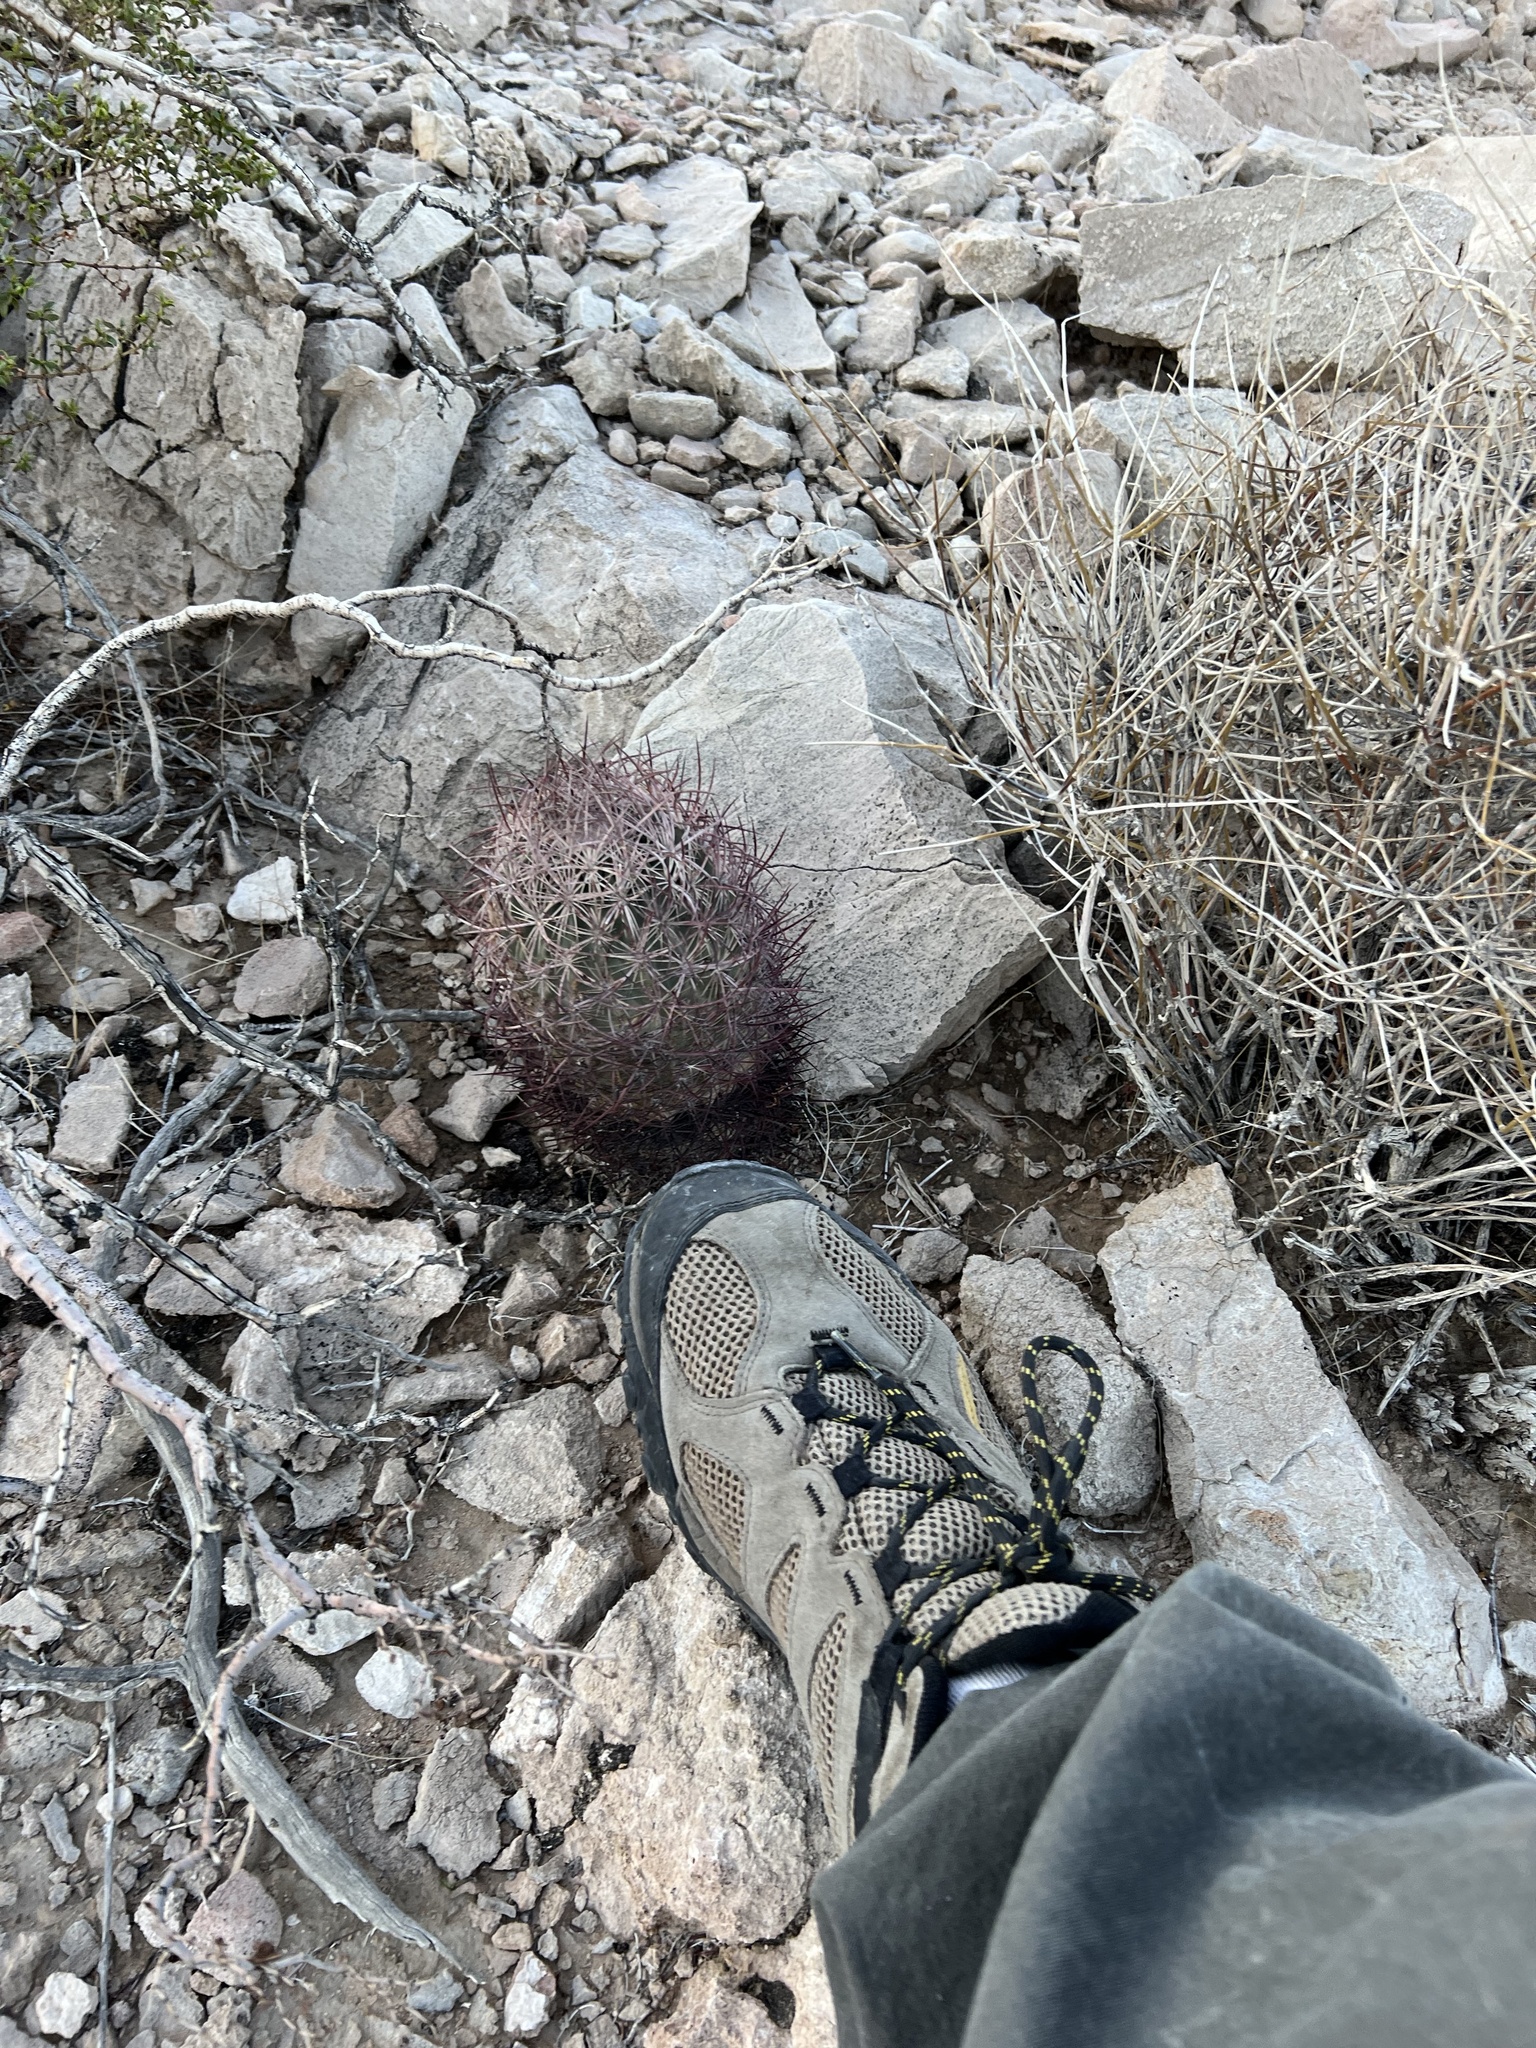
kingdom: Plantae
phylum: Tracheophyta
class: Magnoliopsida
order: Caryophyllales
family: Cactaceae
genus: Sclerocactus
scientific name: Sclerocactus johnsonii
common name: Eight-spine fishhook cactus
